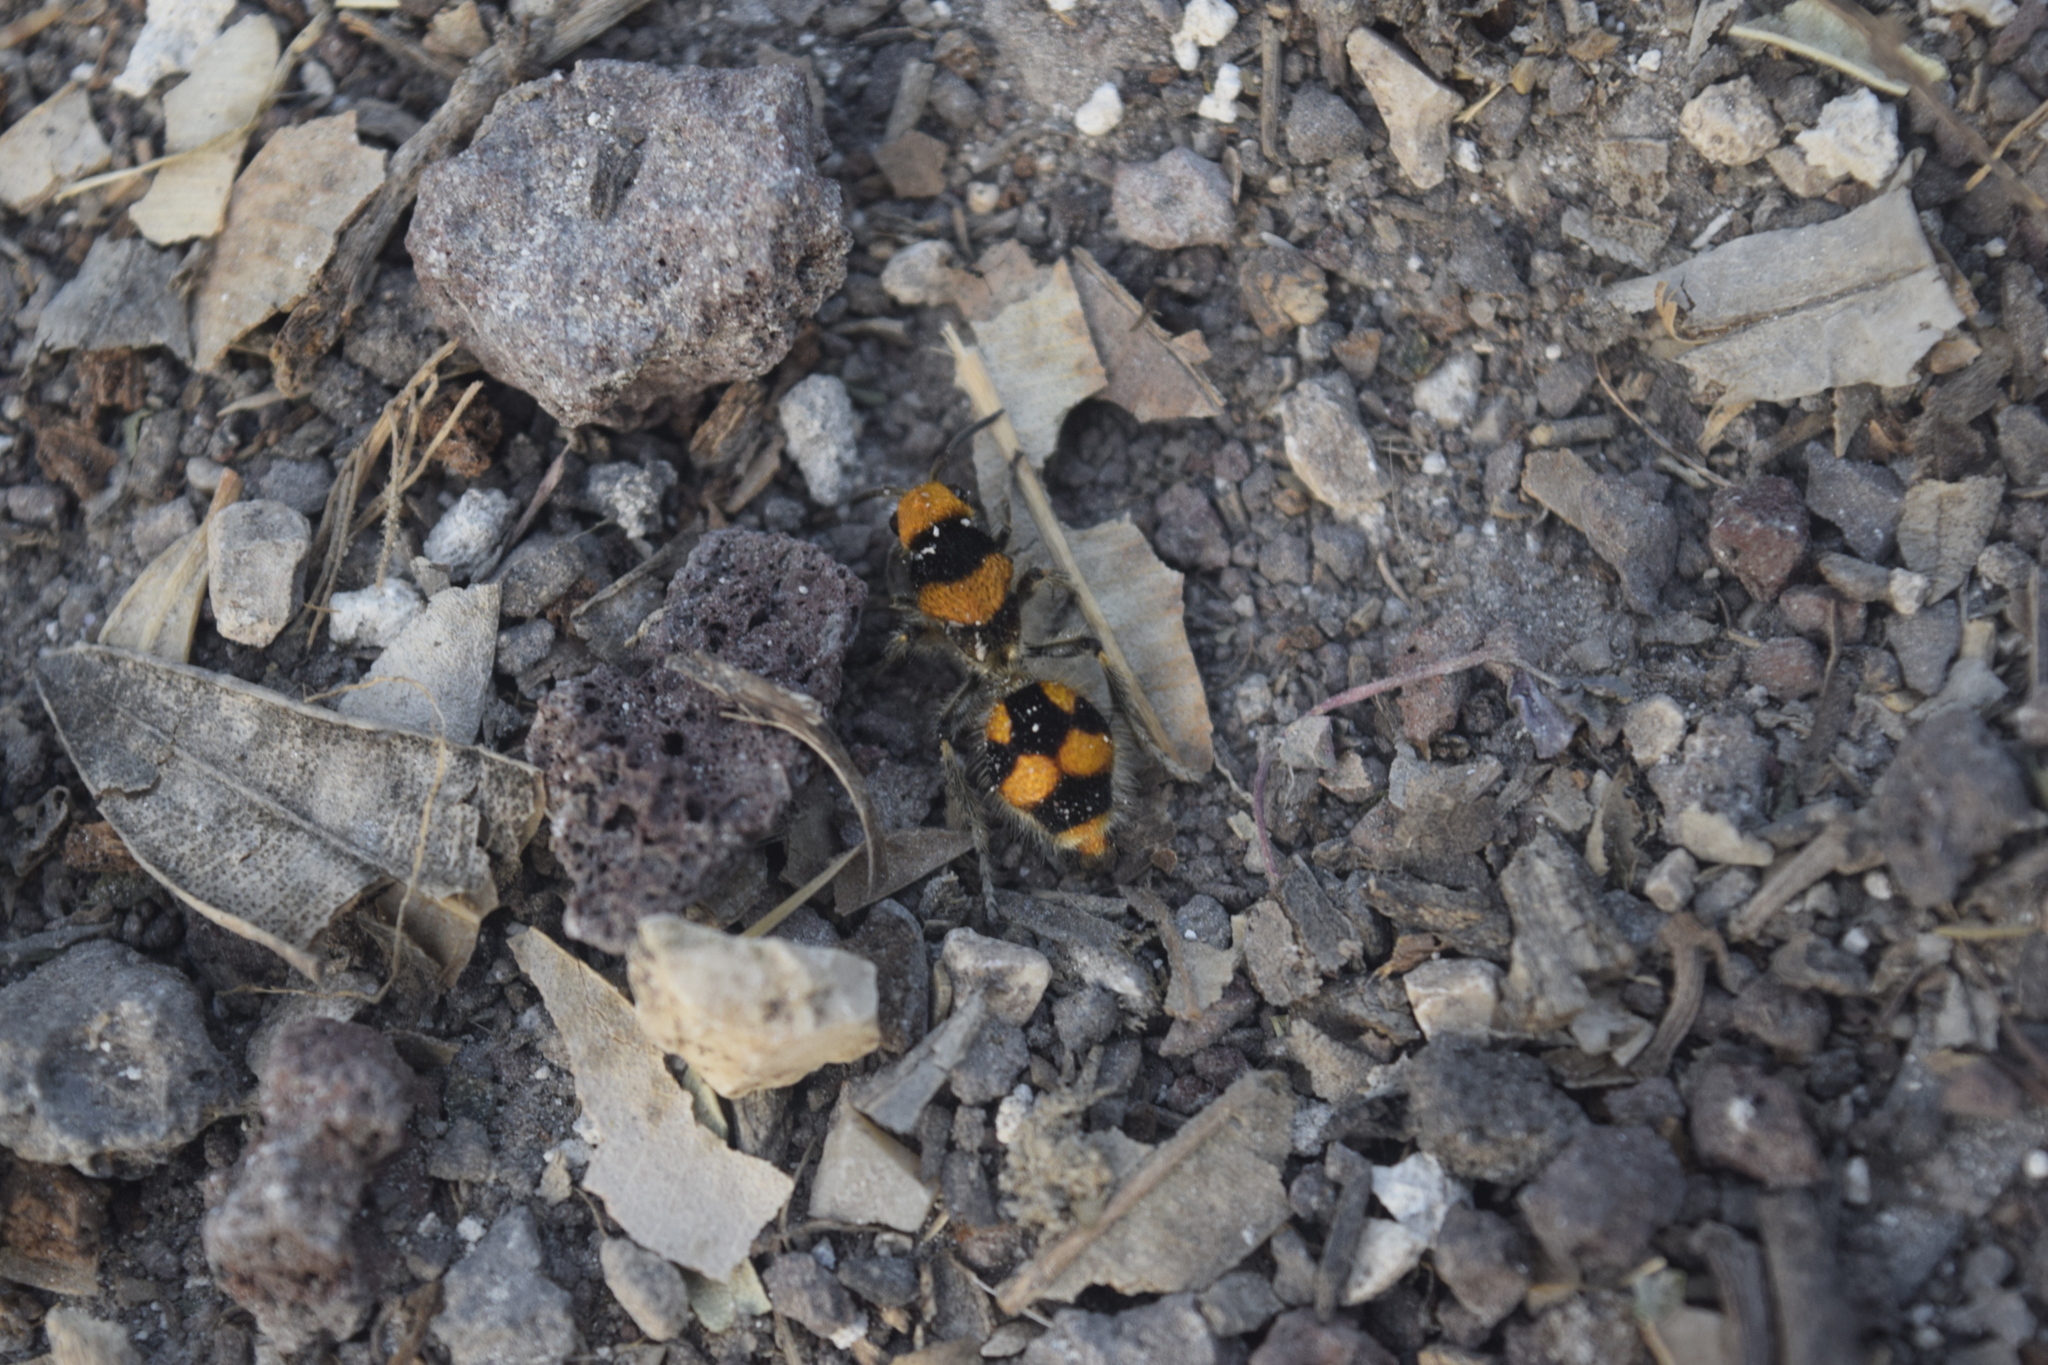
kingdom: Animalia
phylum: Arthropoda
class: Insecta
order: Hymenoptera
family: Mutillidae
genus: Dasymutilla
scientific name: Dasymutilla pulchra
